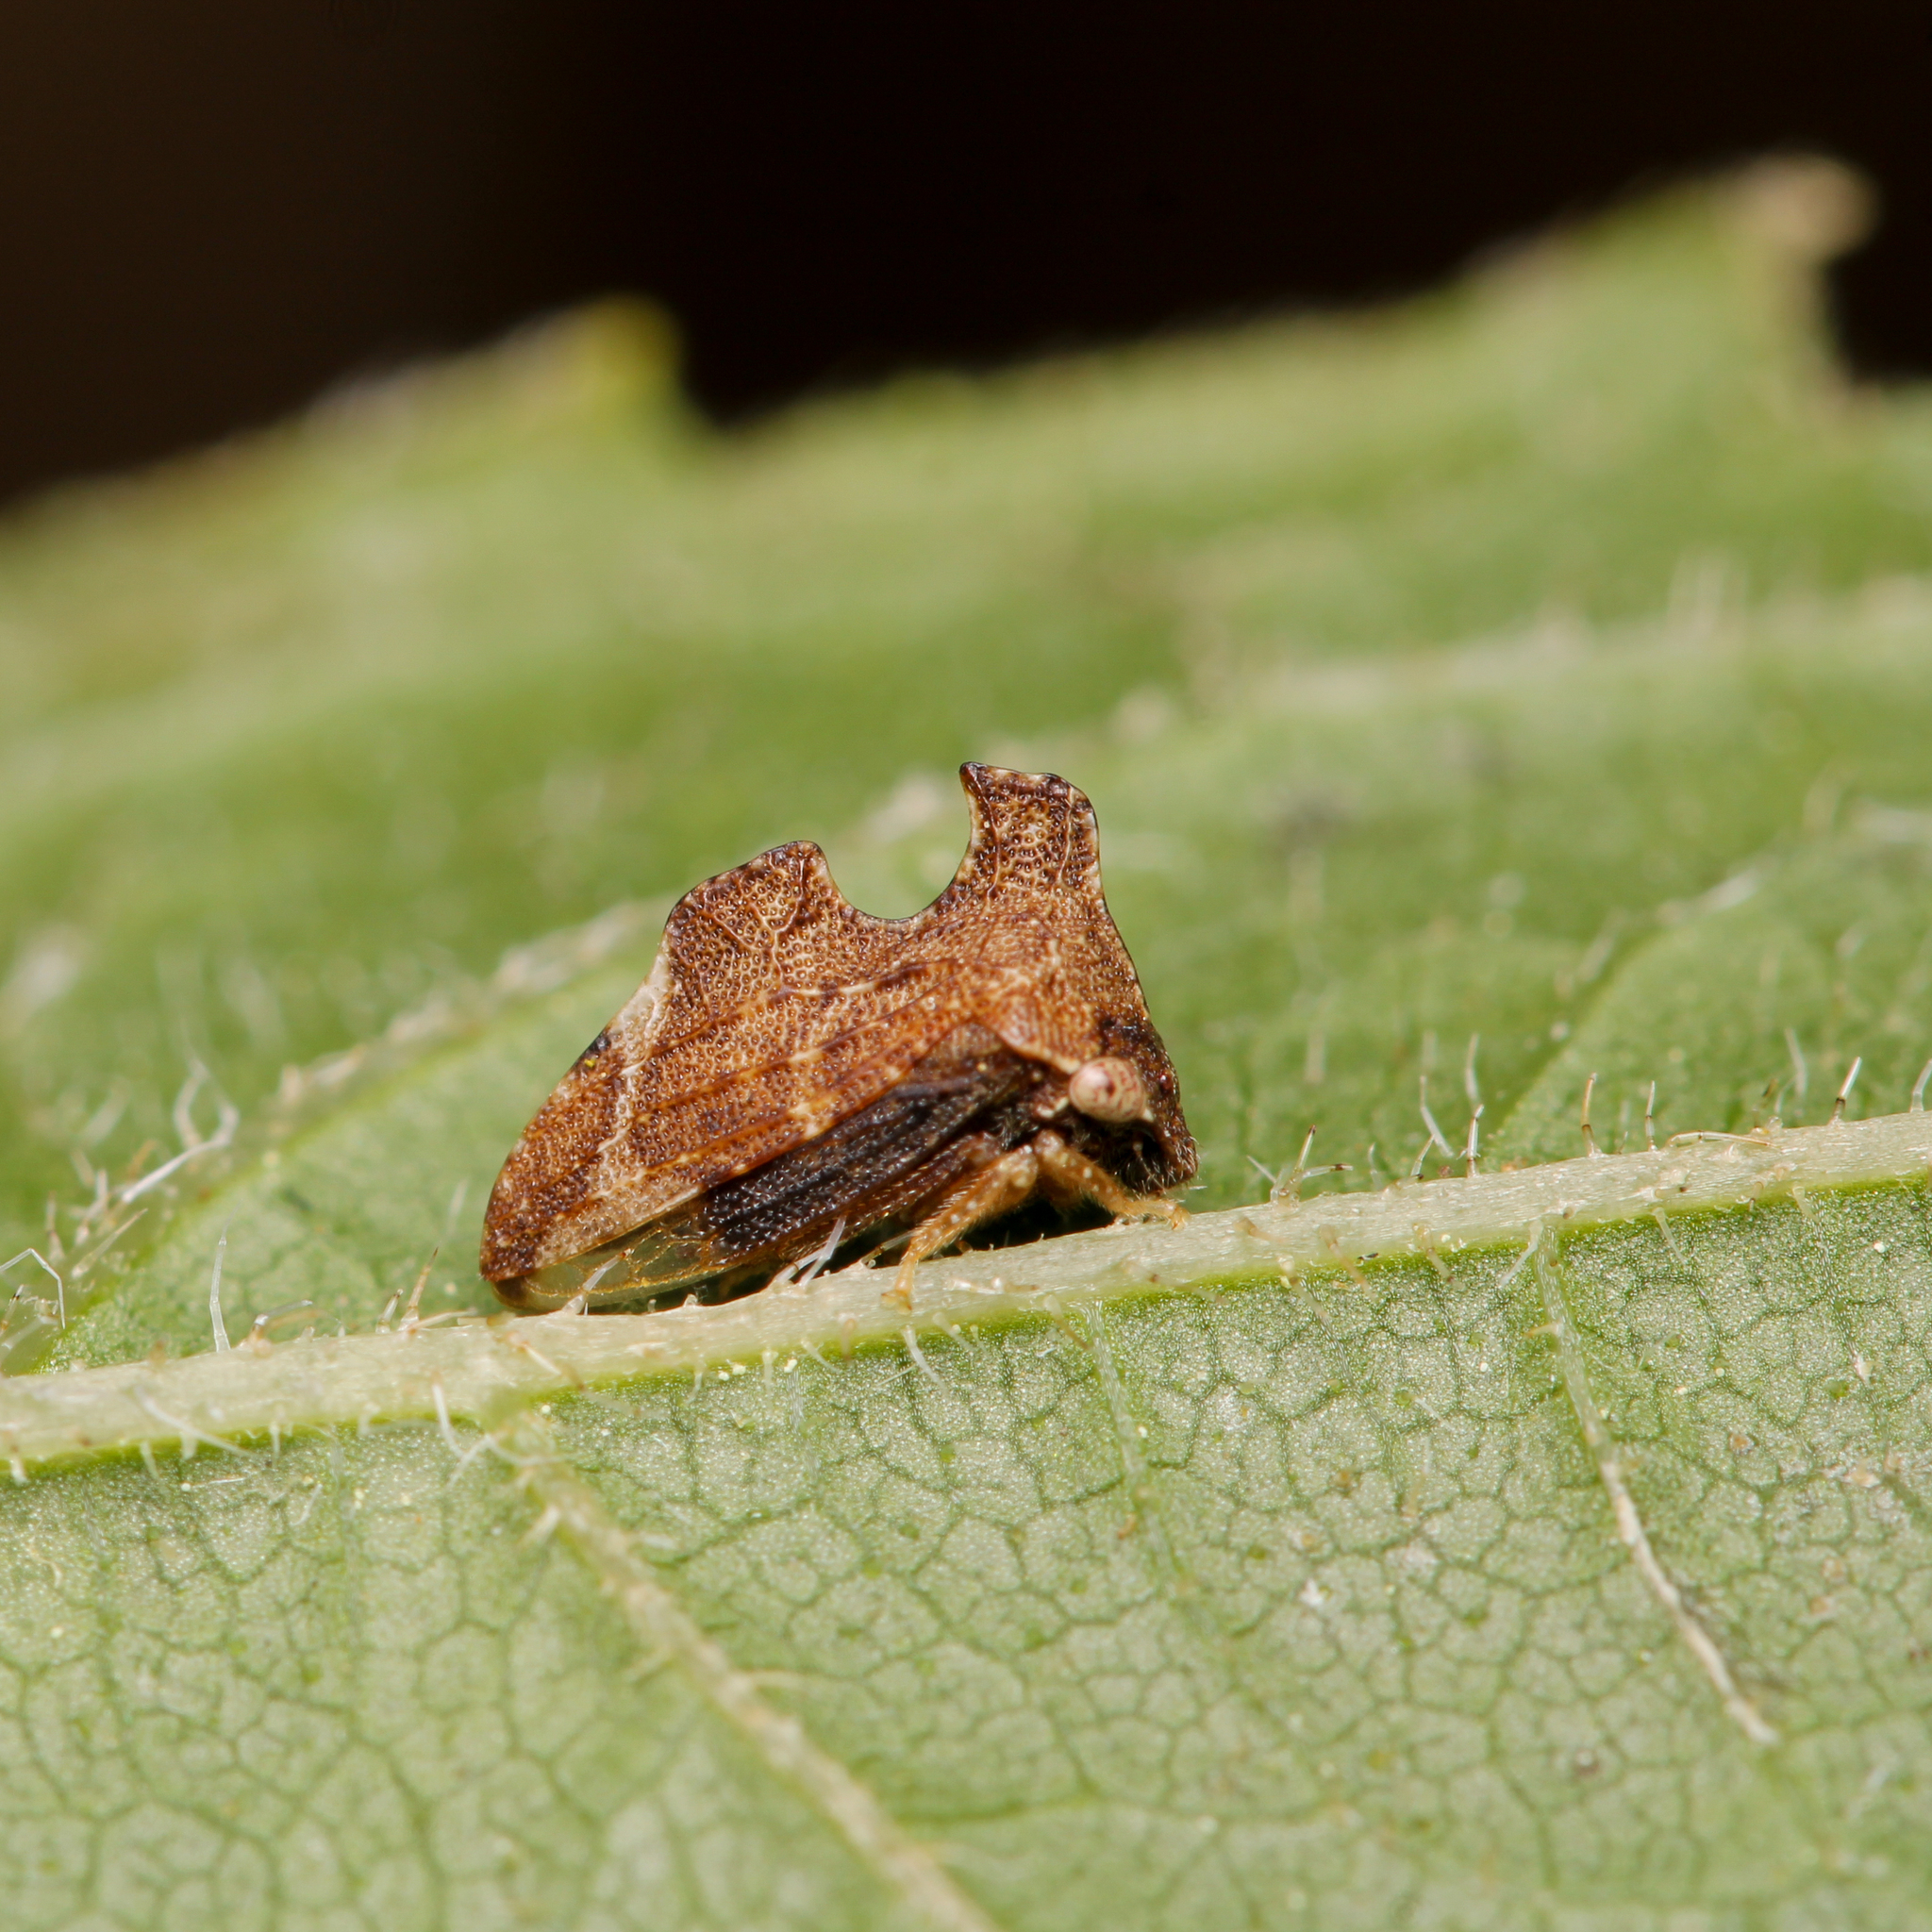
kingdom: Animalia
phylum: Arthropoda
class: Insecta
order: Hemiptera
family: Membracidae
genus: Entylia
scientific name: Entylia carinata
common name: Keeled treehopper
